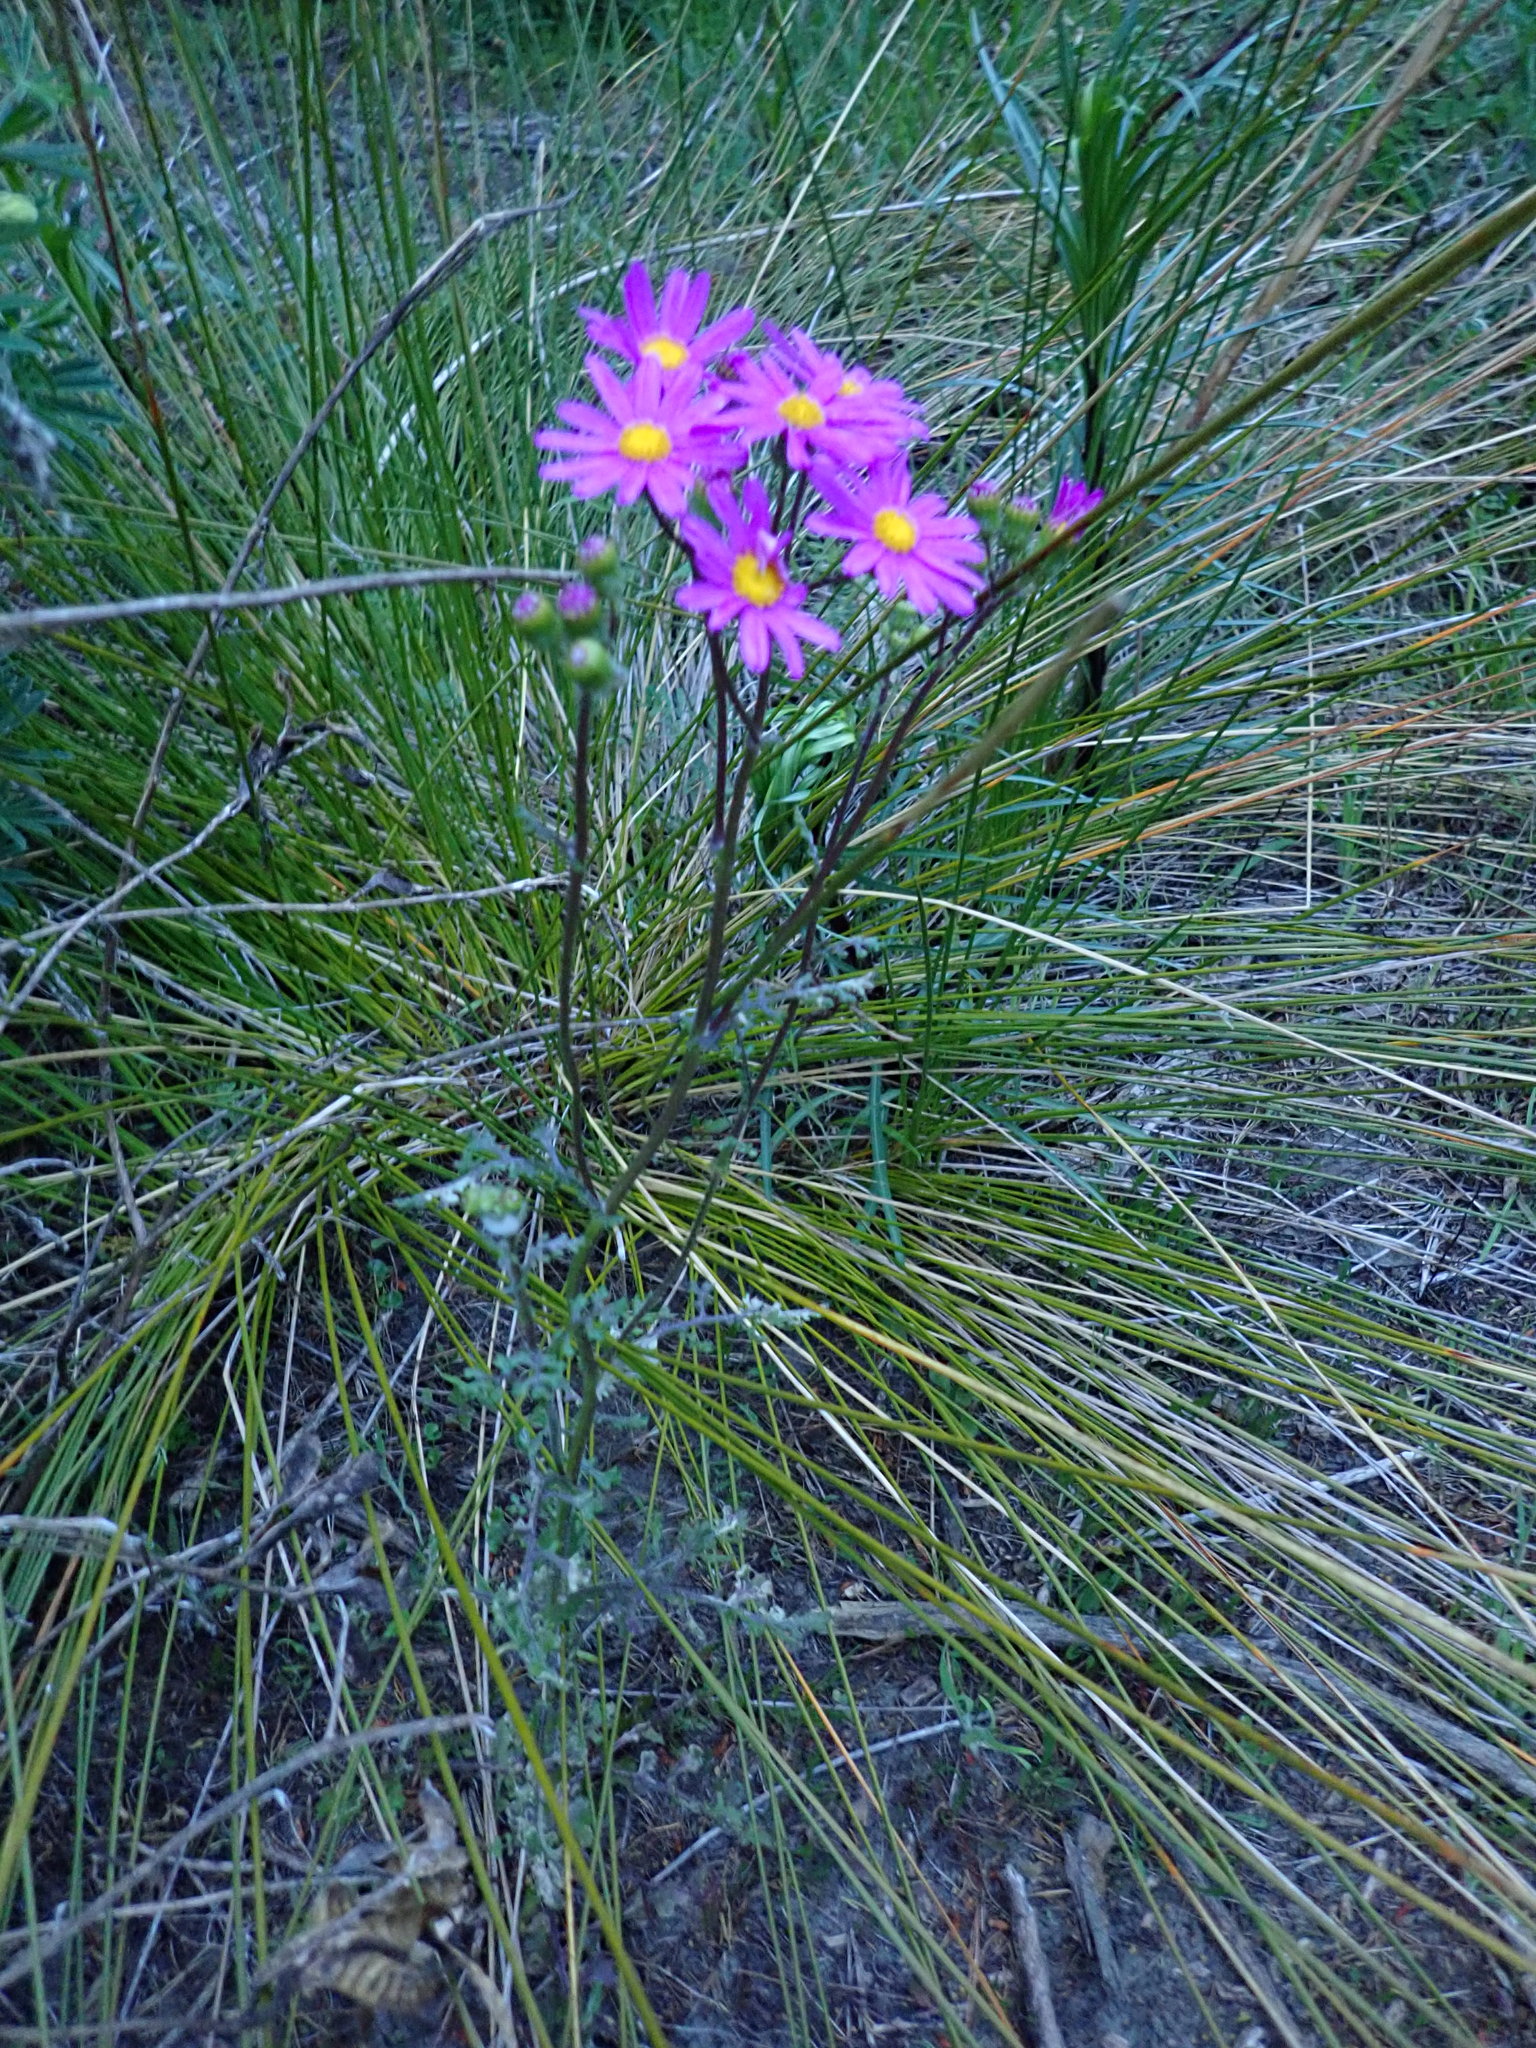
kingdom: Plantae
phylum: Tracheophyta
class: Magnoliopsida
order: Asterales
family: Asteraceae
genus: Senecio
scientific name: Senecio elegans
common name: Purple groundsel
